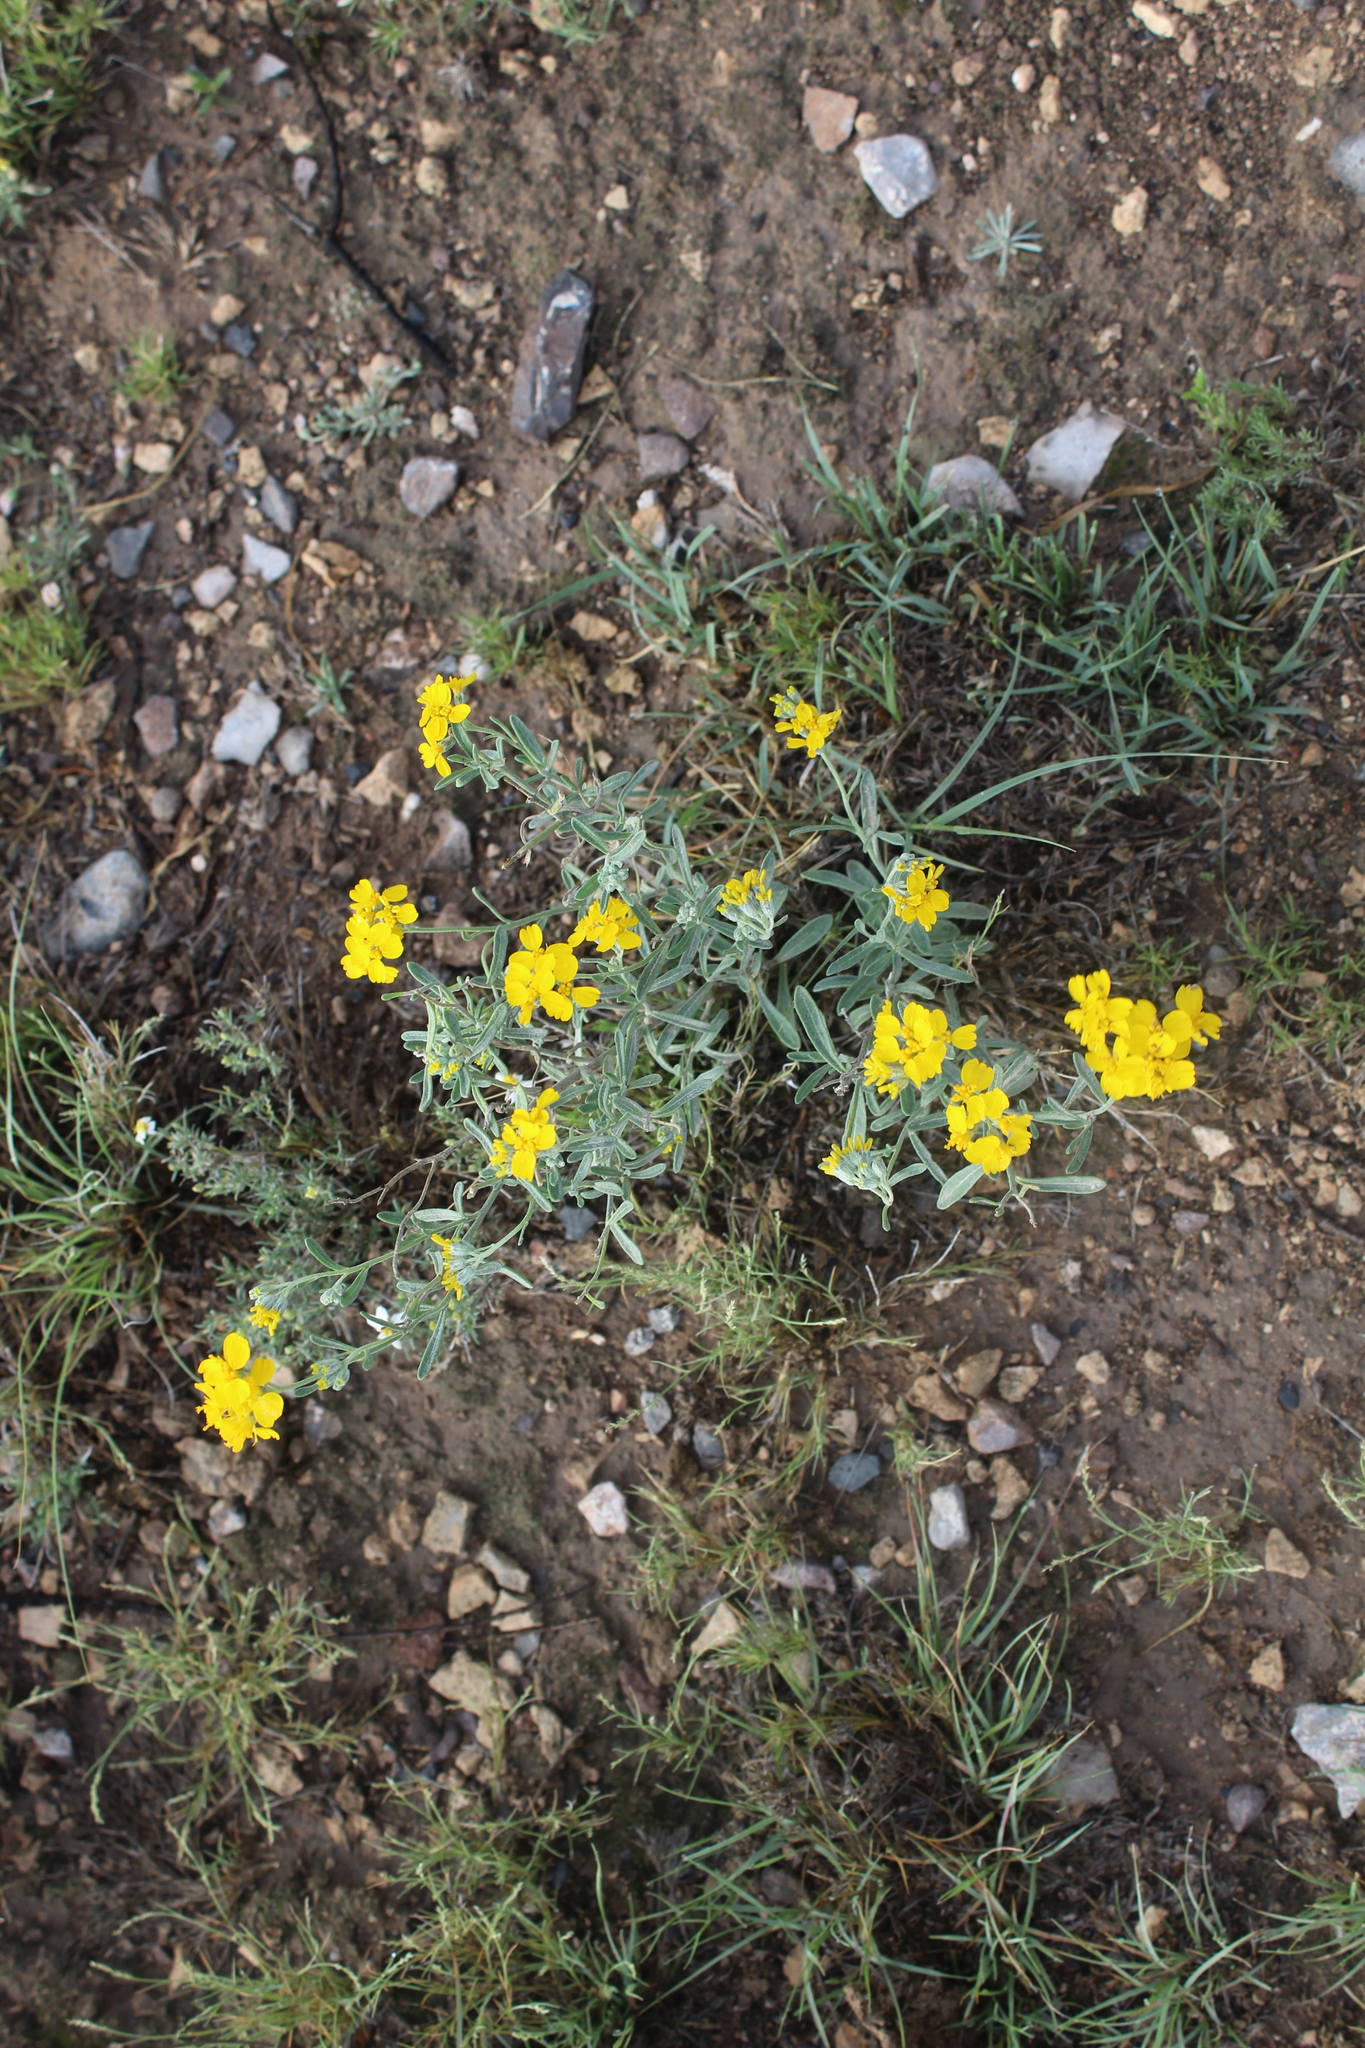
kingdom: Plantae
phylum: Tracheophyta
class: Magnoliopsida
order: Asterales
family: Asteraceae
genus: Psilostrophe
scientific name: Psilostrophe gnaphalioides
